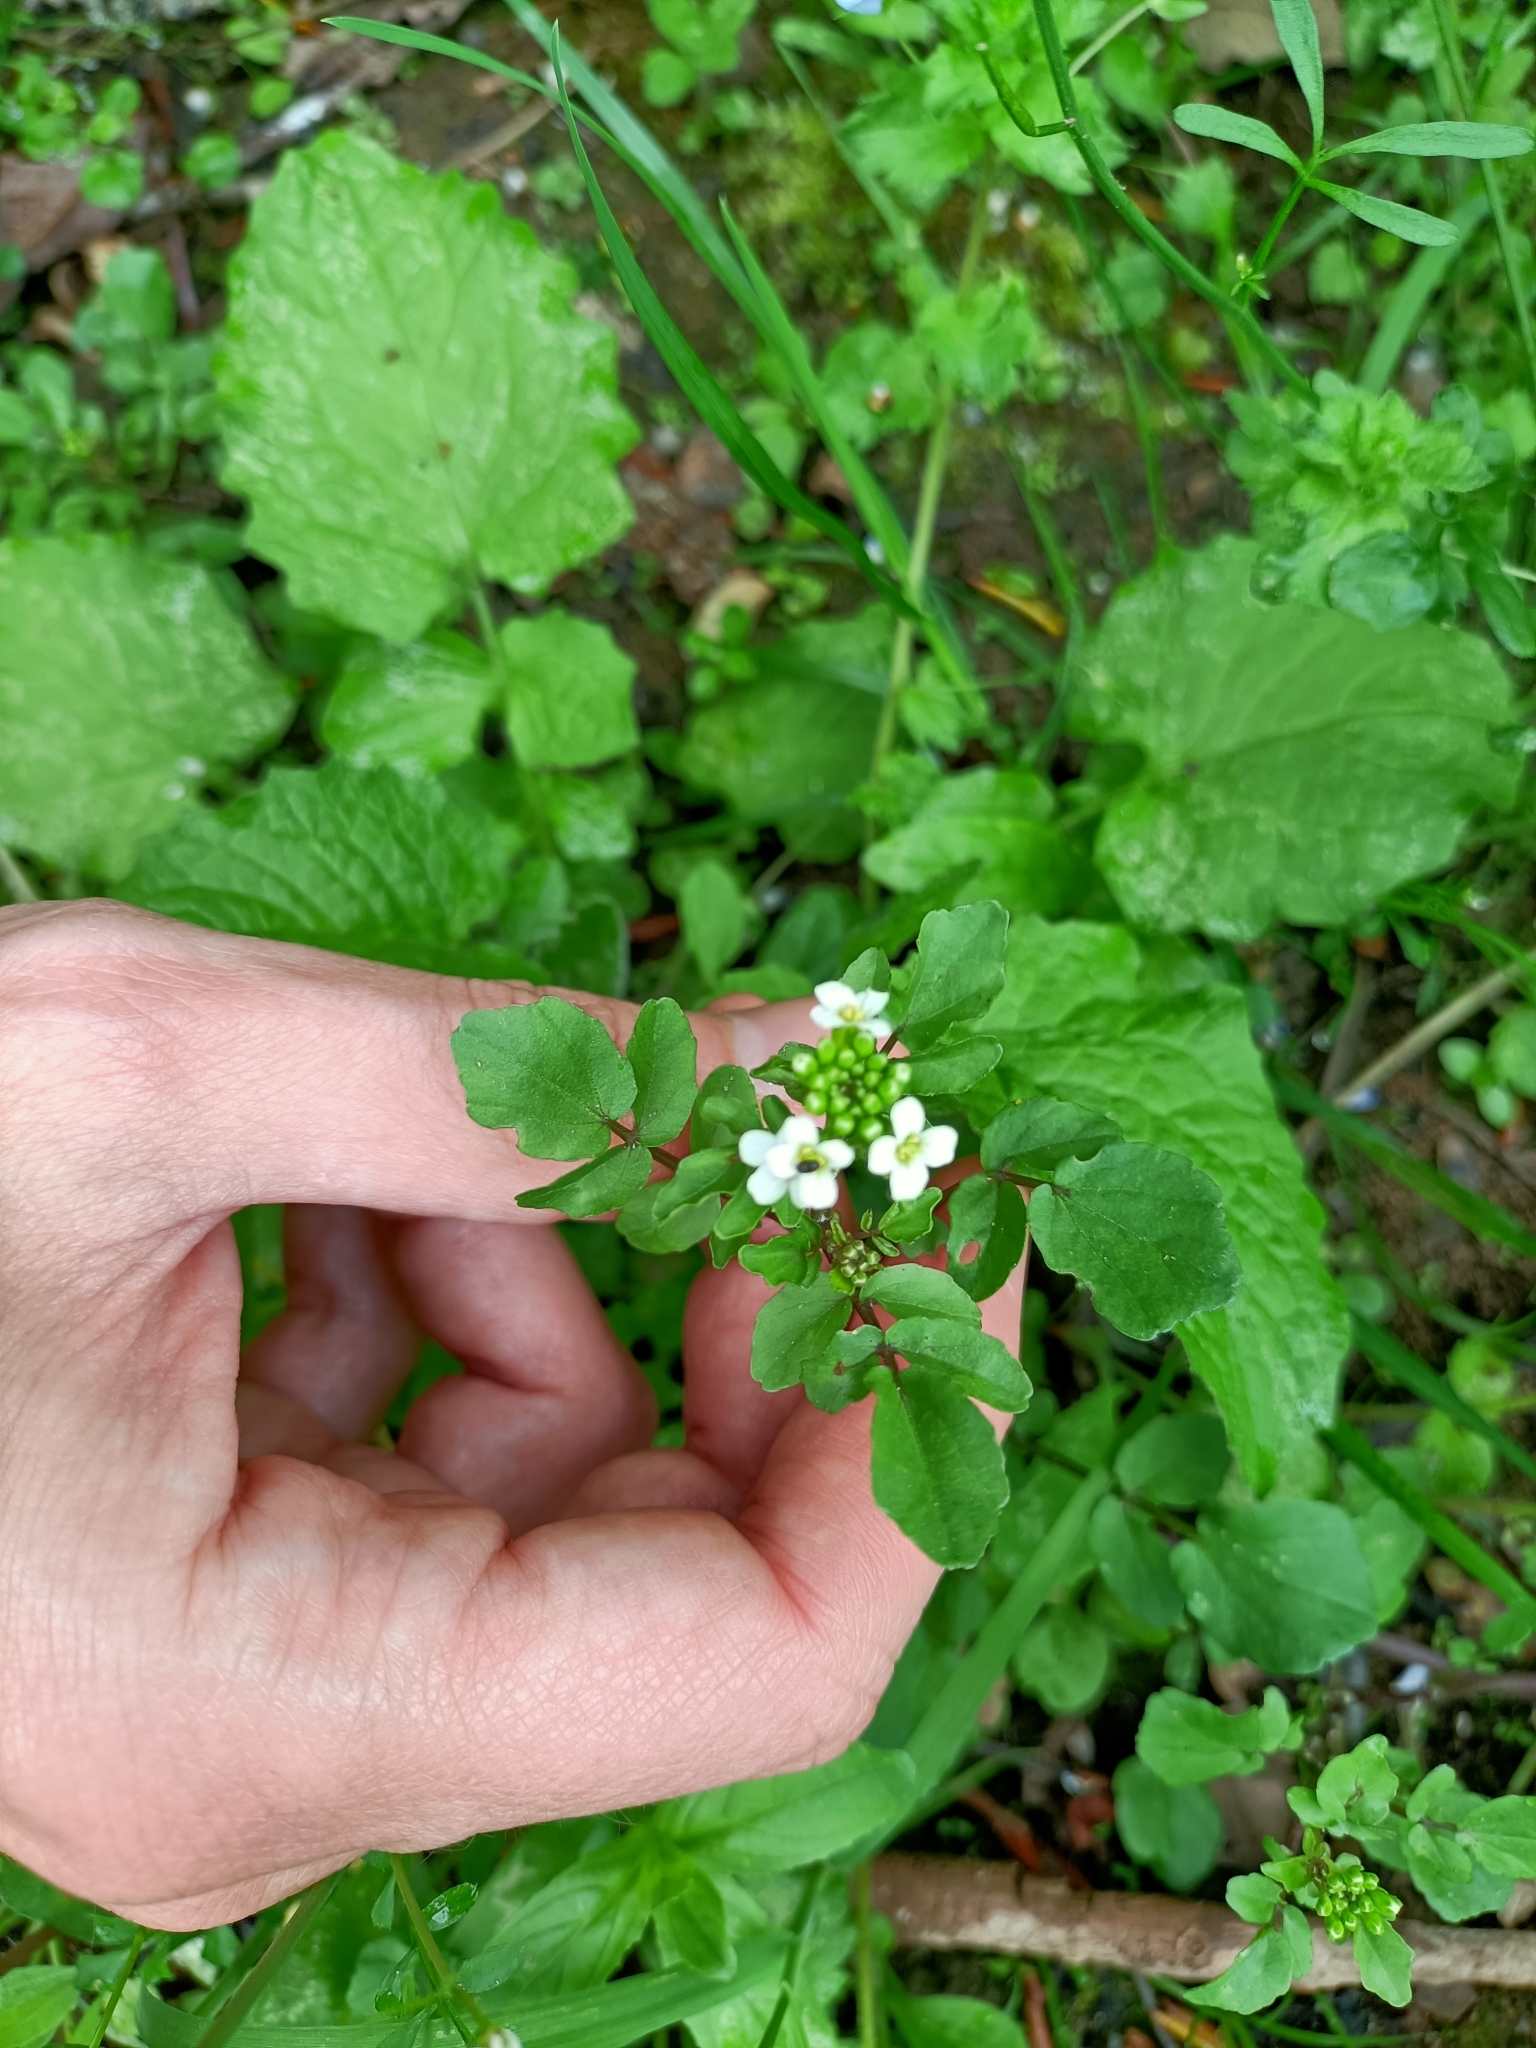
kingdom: Plantae
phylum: Tracheophyta
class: Magnoliopsida
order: Brassicales
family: Brassicaceae
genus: Nasturtium
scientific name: Nasturtium officinale
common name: Watercress
